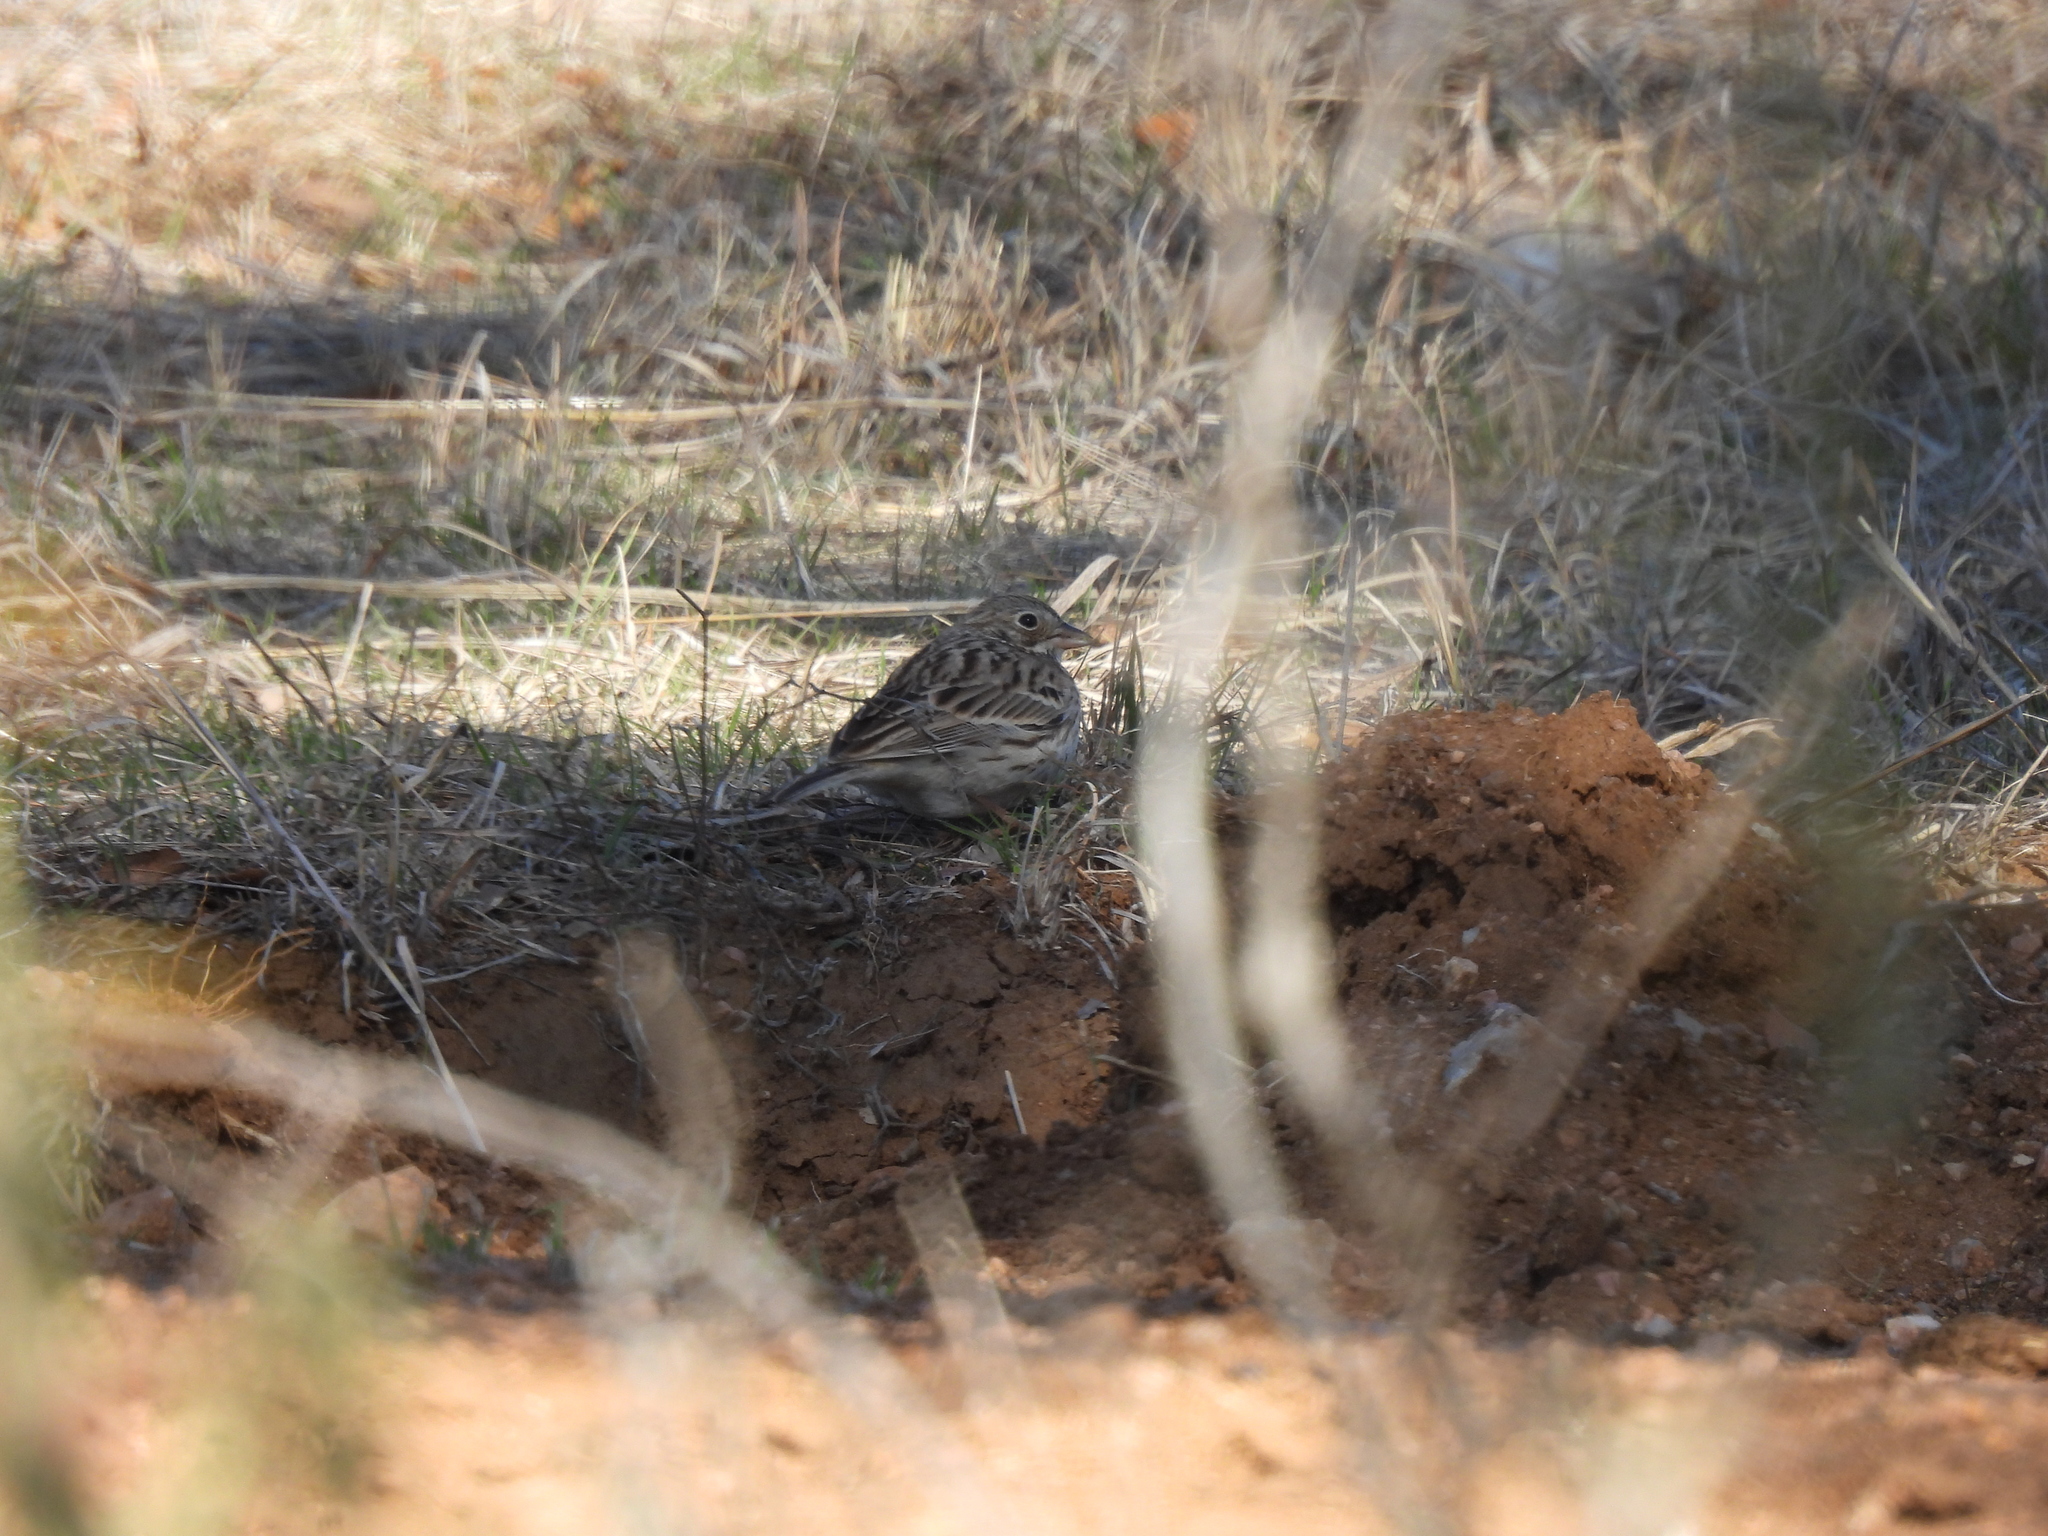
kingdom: Animalia
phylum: Chordata
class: Aves
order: Passeriformes
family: Passerellidae
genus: Pooecetes
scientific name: Pooecetes gramineus
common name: Vesper sparrow
